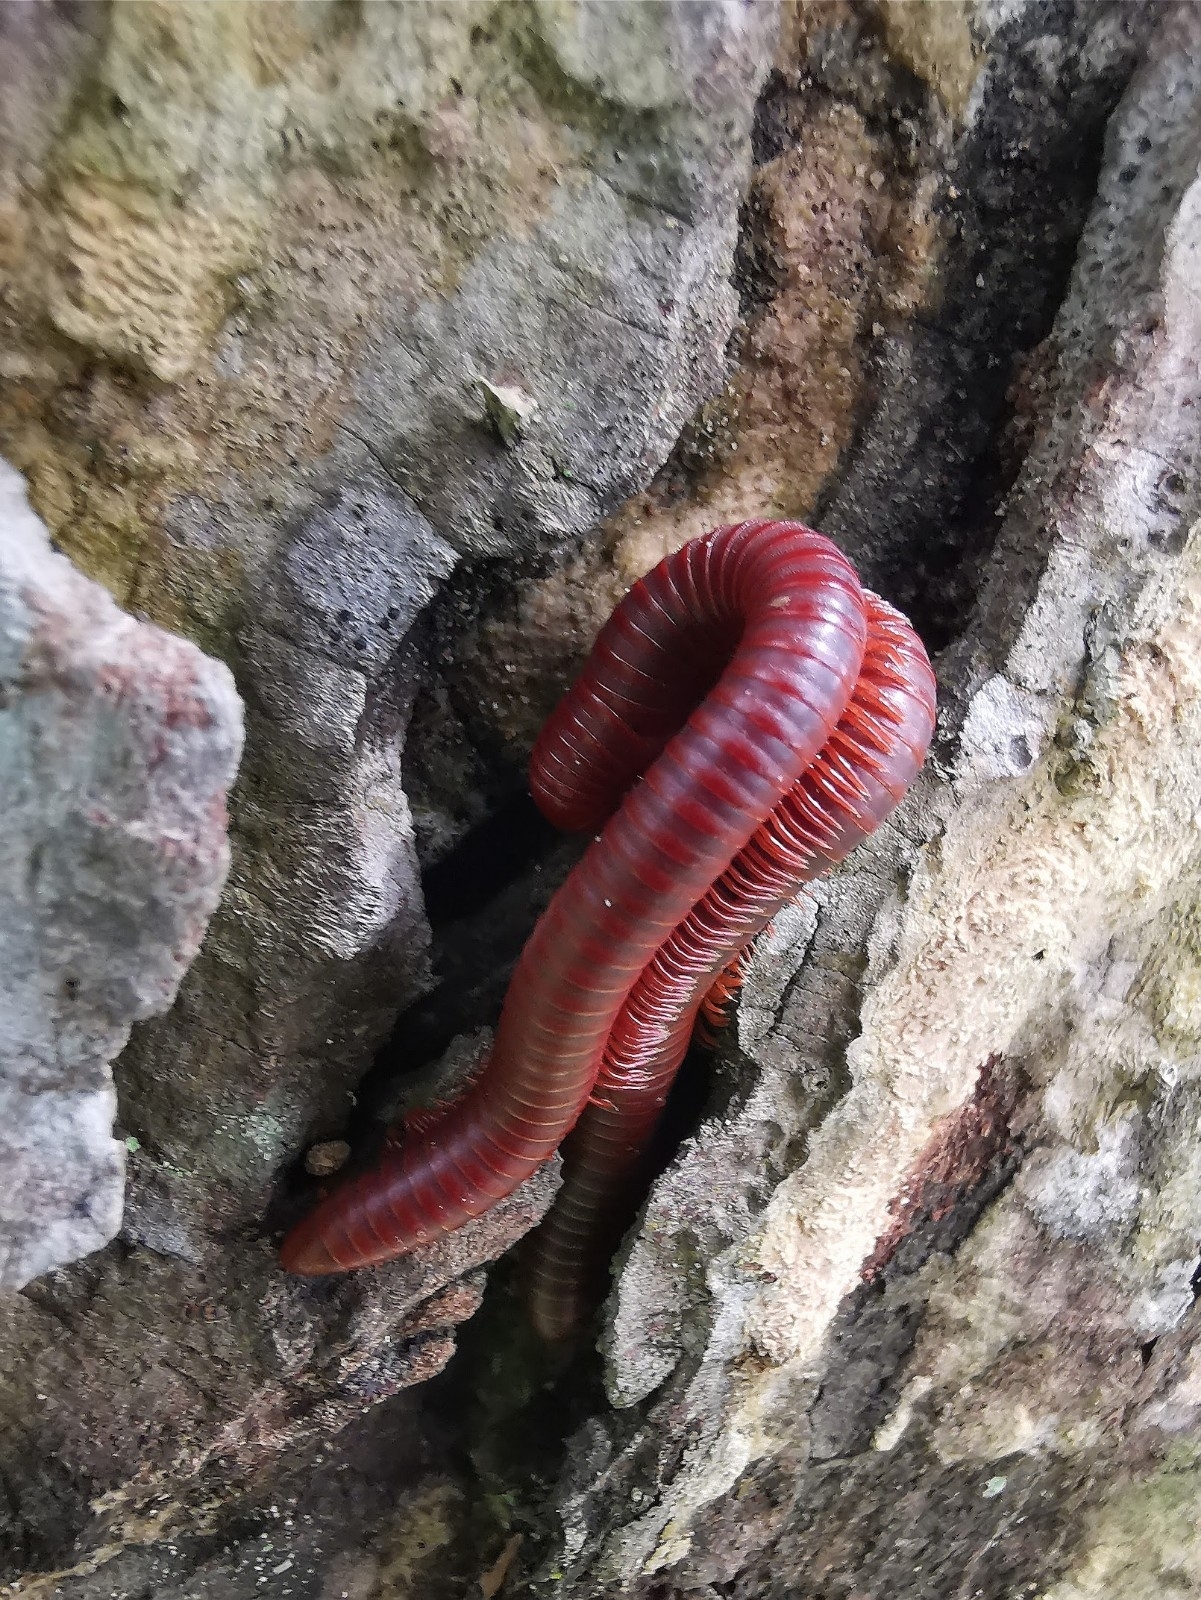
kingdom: Animalia
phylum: Arthropoda
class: Diplopoda
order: Spirobolida
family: Pachybolidae
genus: Trigoniulus
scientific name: Trigoniulus corallinus
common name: Millipede
